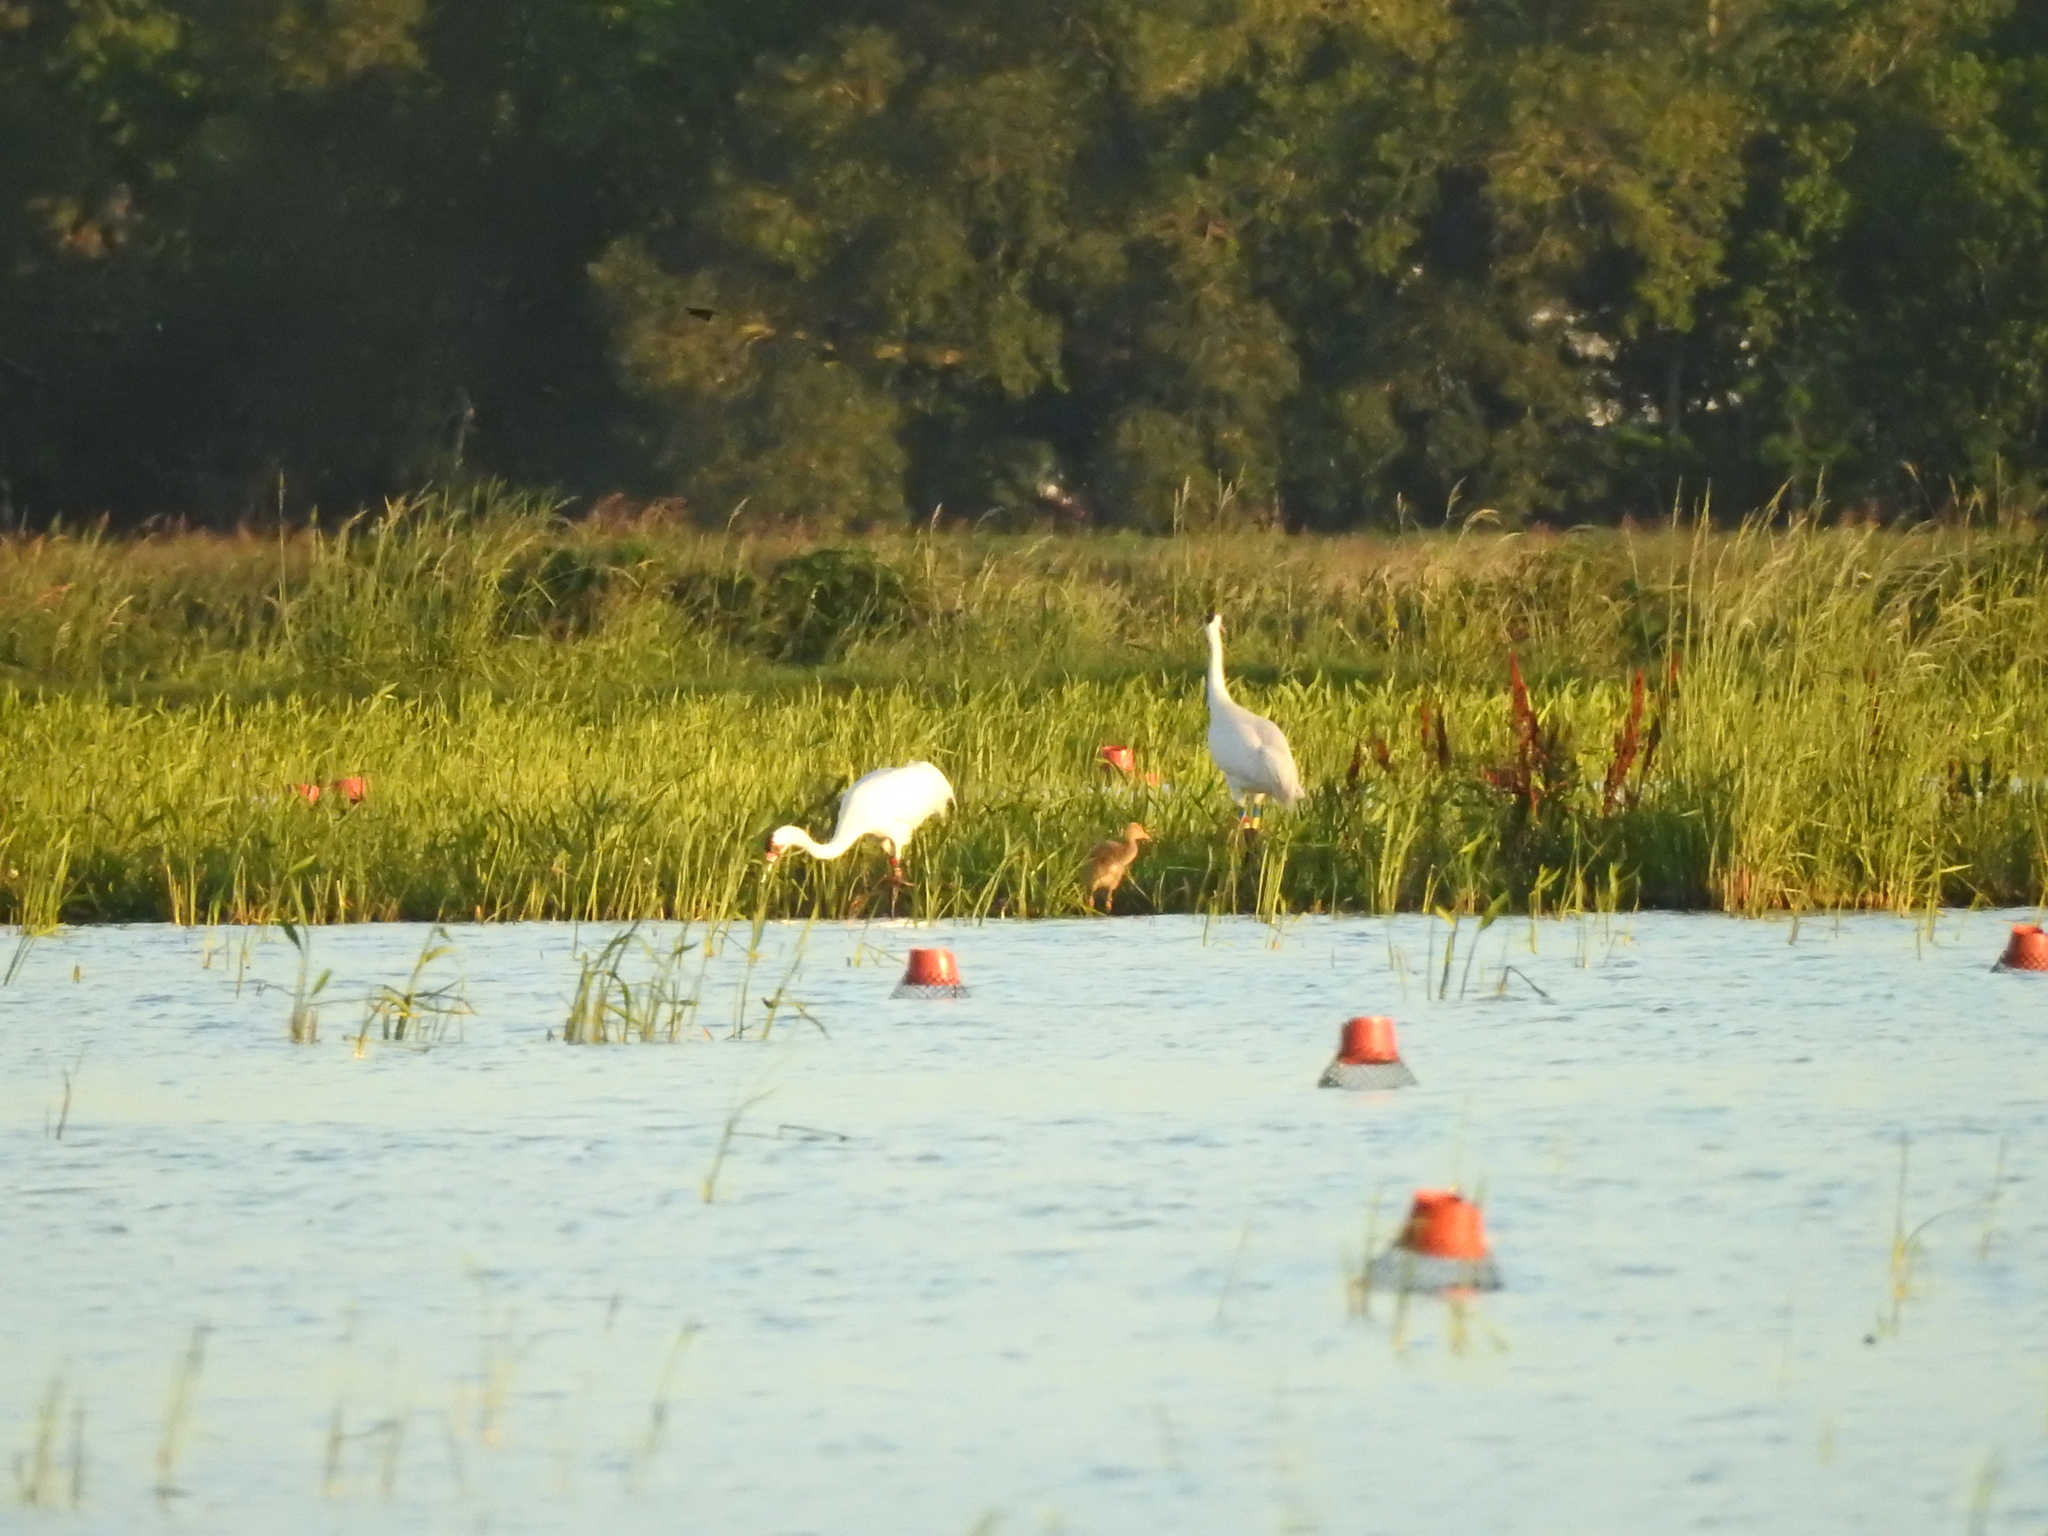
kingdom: Animalia
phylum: Chordata
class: Aves
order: Gruiformes
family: Gruidae
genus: Grus
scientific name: Grus americana
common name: Whooping crane
